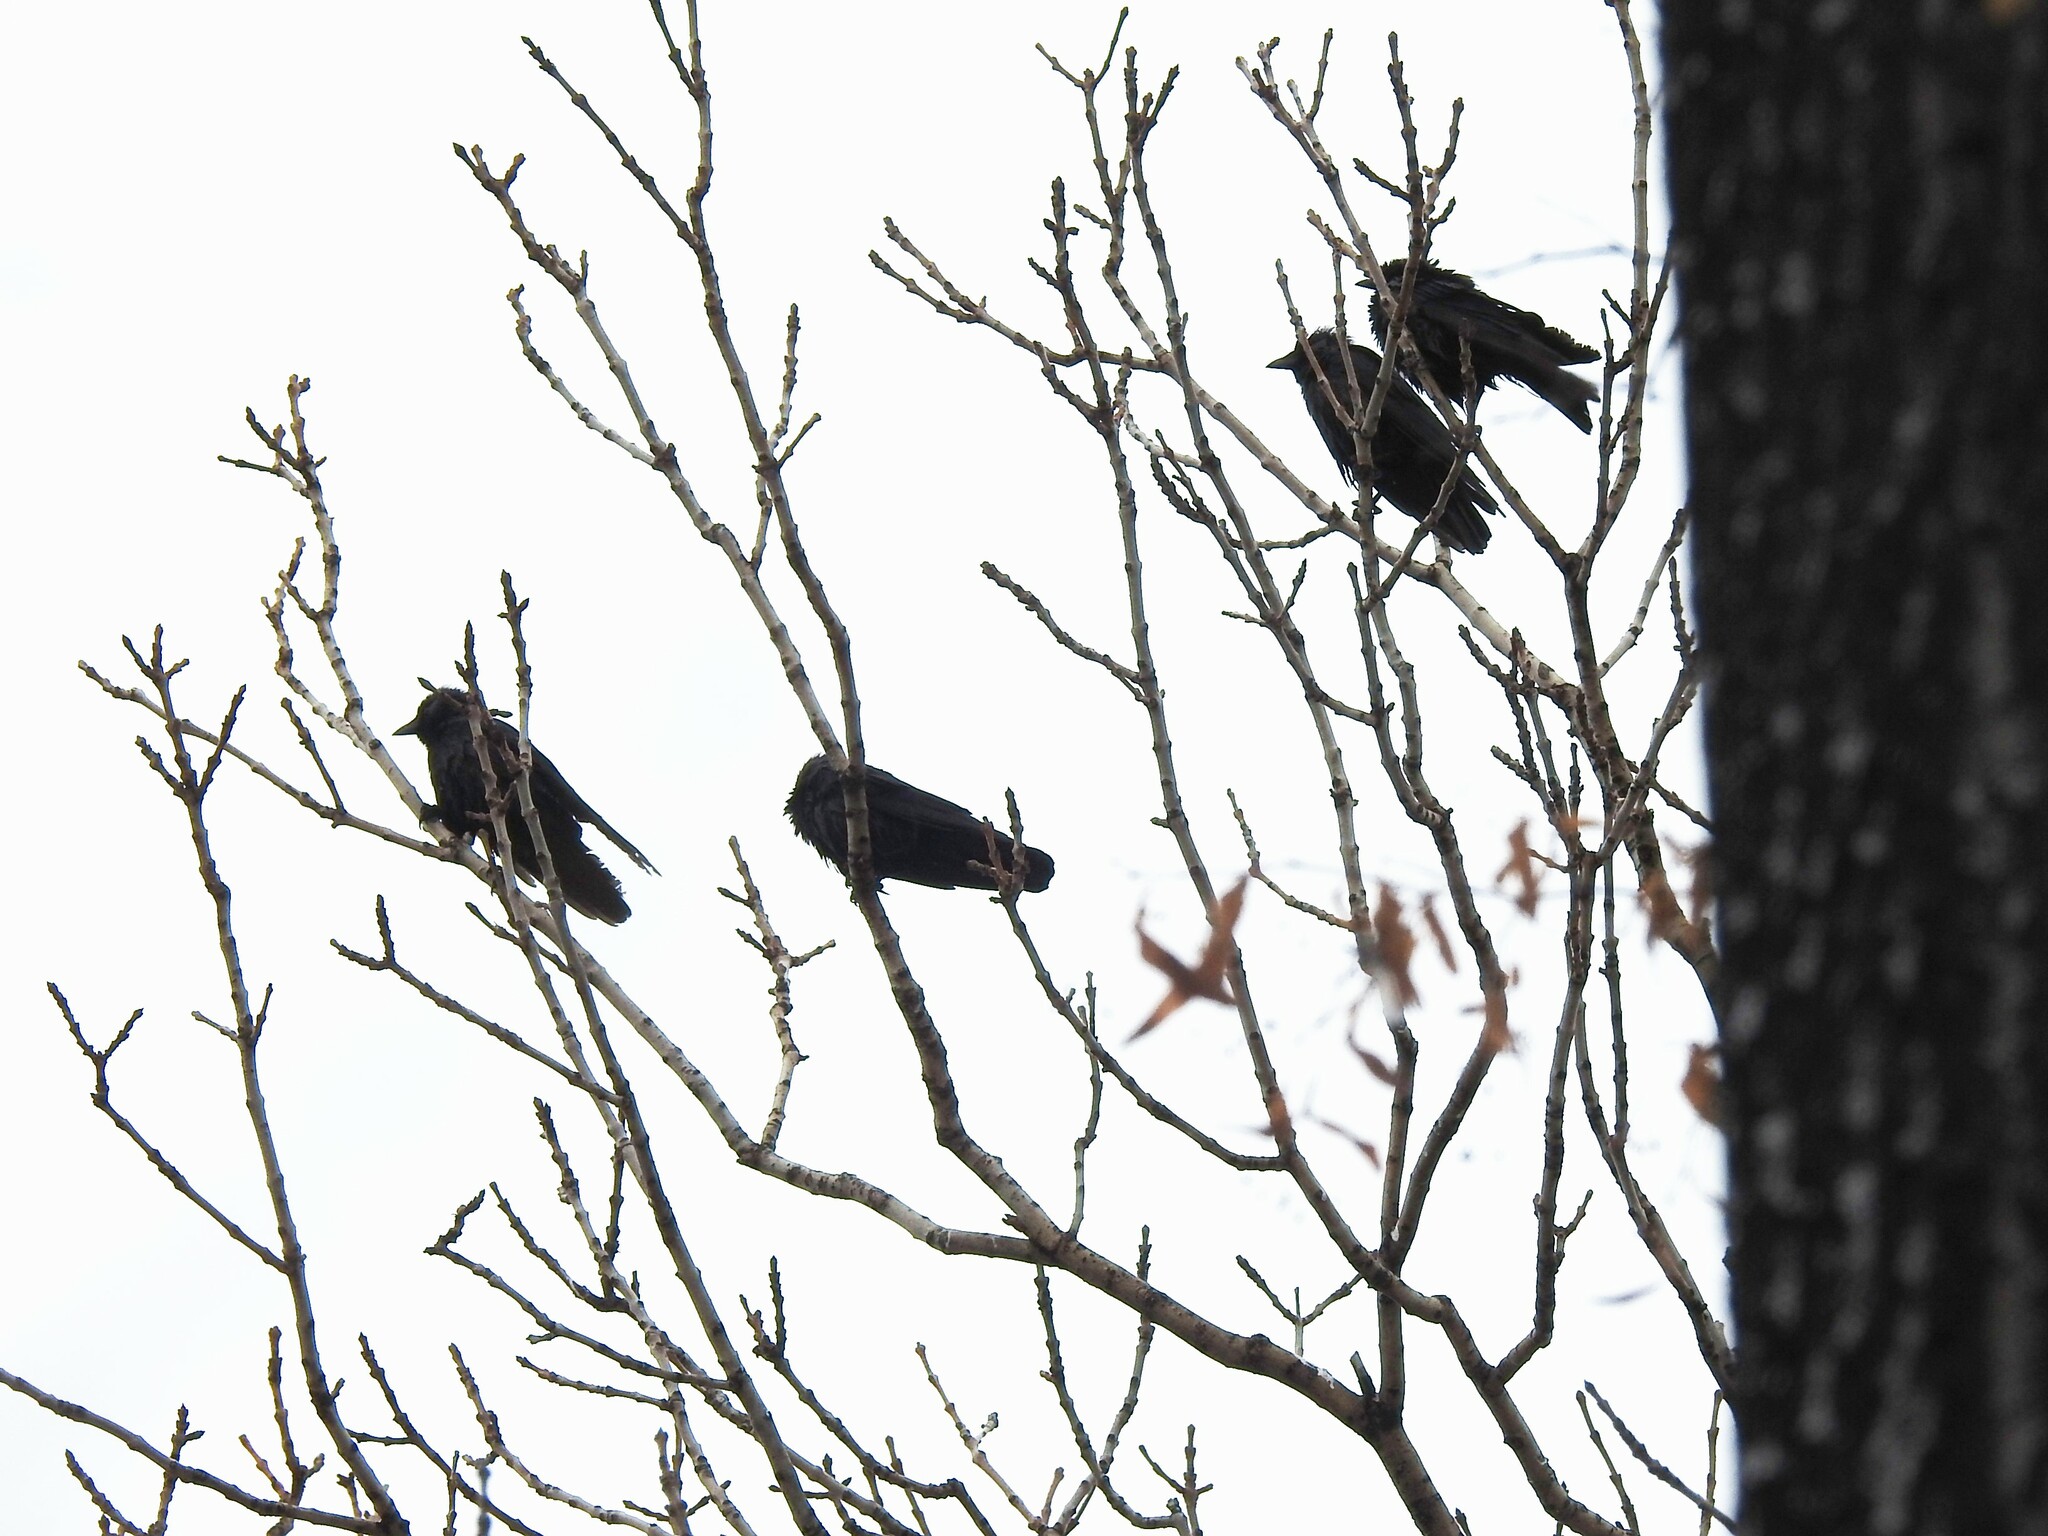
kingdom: Animalia
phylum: Chordata
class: Aves
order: Passeriformes
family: Corvidae
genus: Coloeus
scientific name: Coloeus monedula
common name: Western jackdaw
